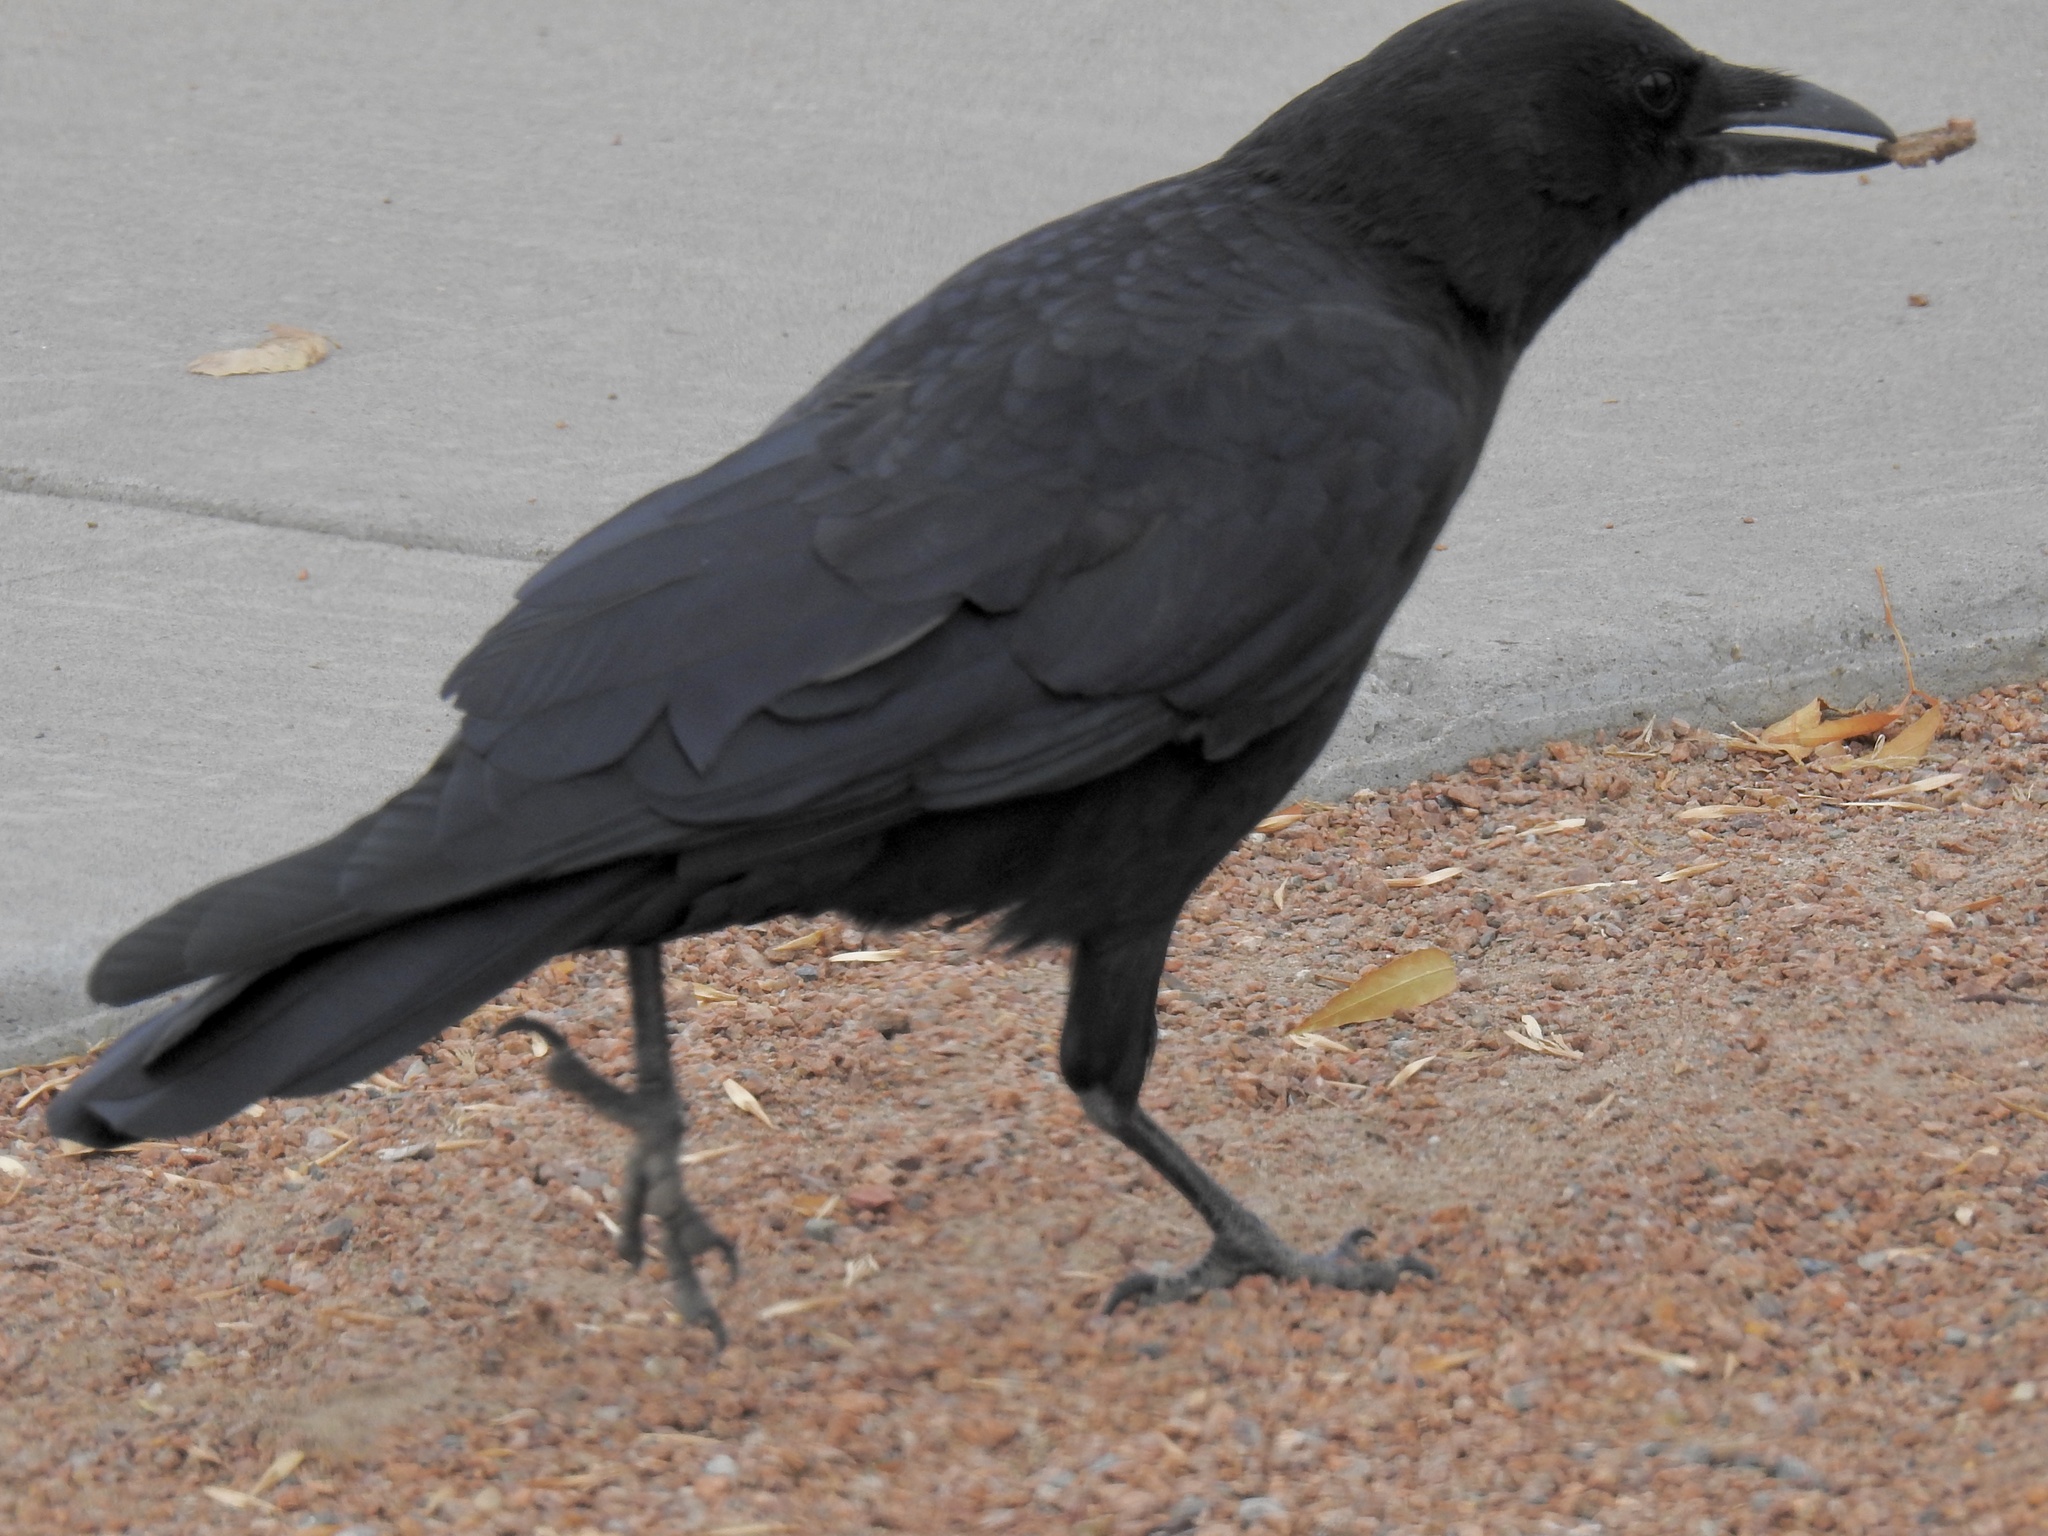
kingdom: Animalia
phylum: Chordata
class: Aves
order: Passeriformes
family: Corvidae
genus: Corvus
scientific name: Corvus brachyrhynchos
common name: American crow
